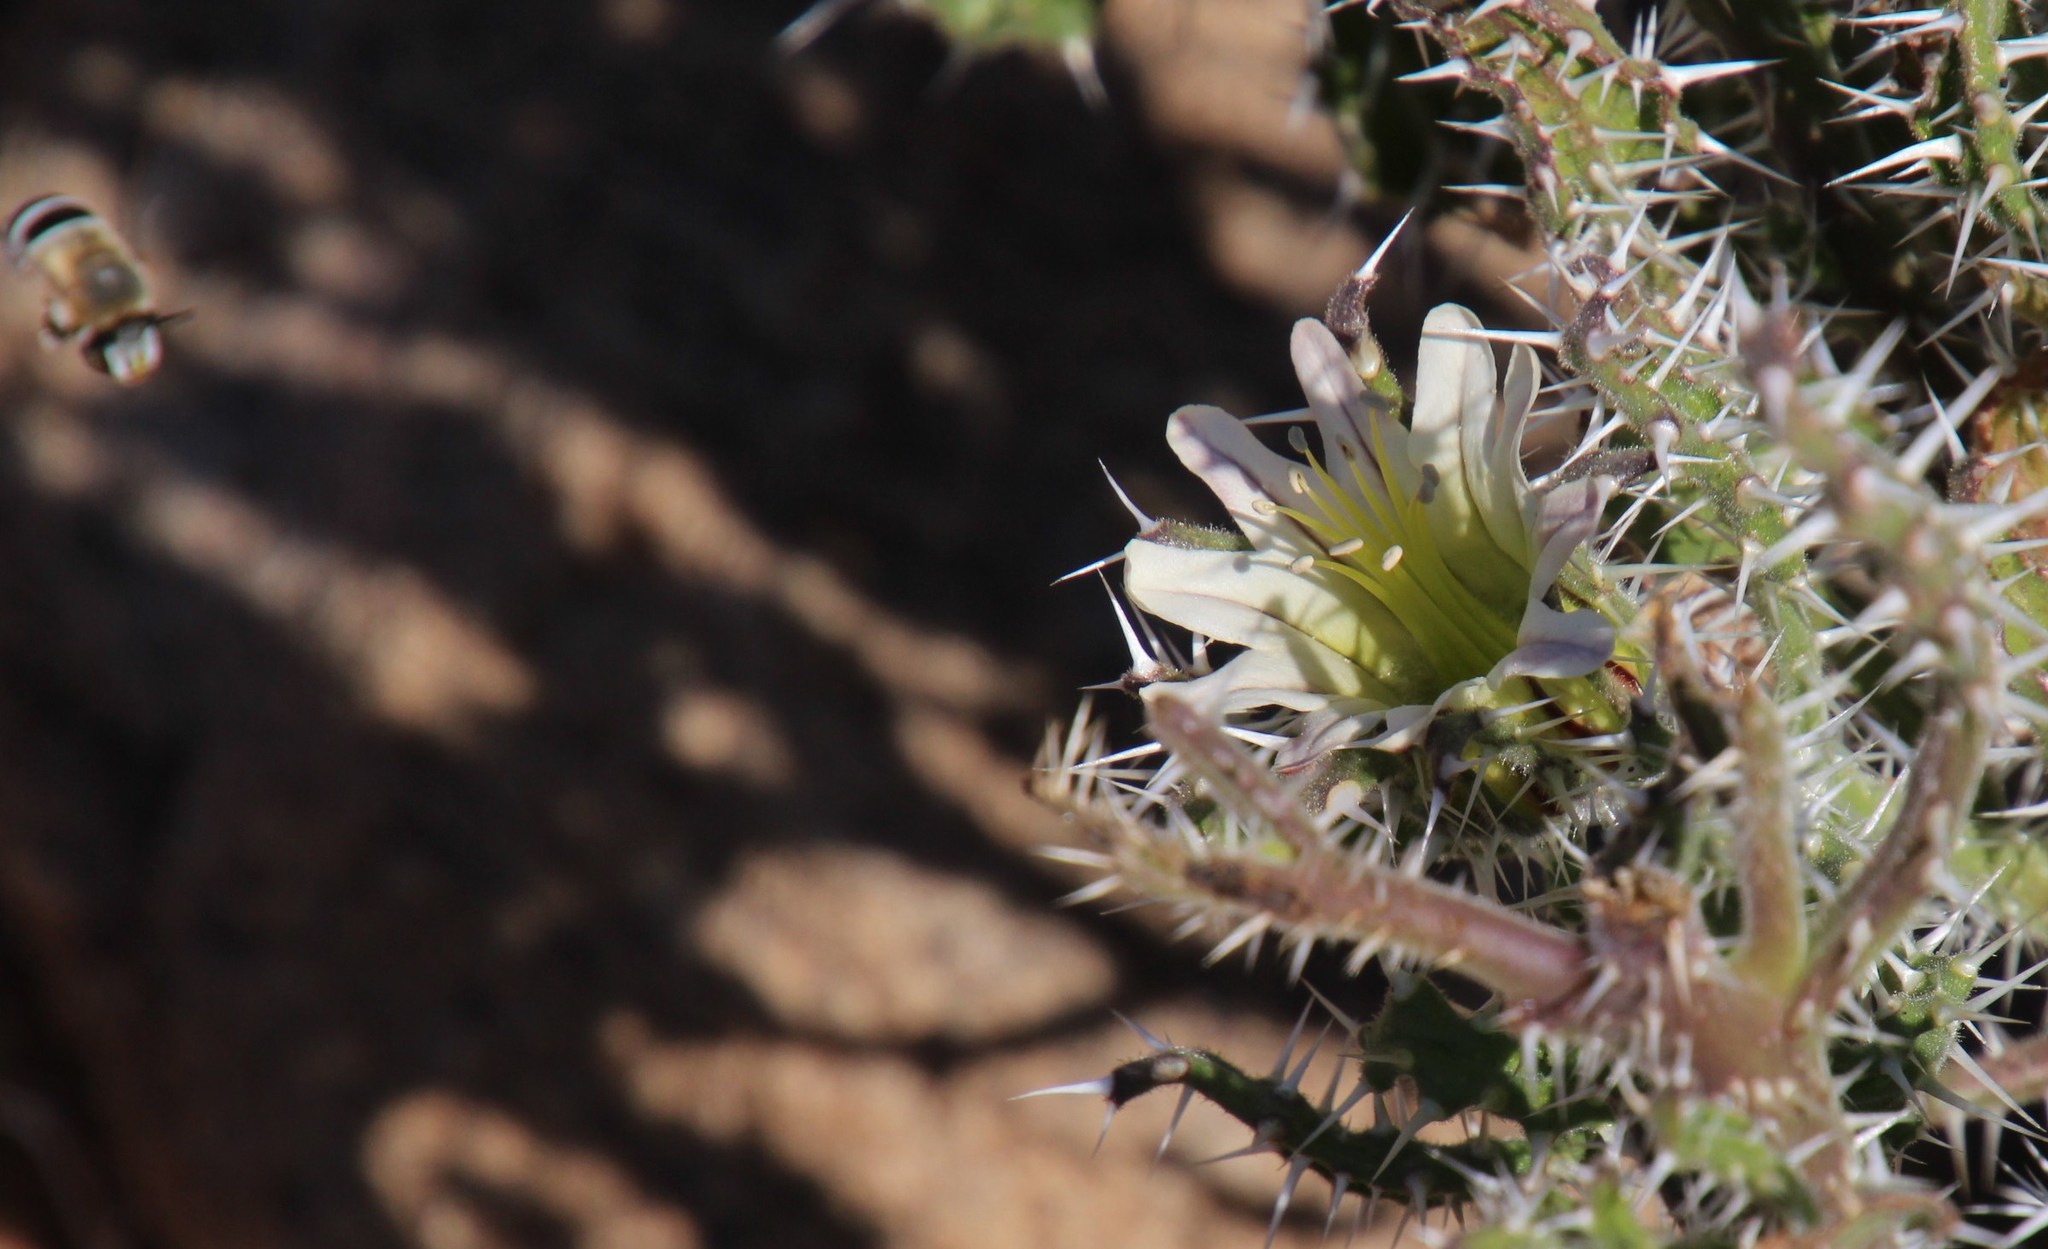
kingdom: Plantae
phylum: Tracheophyta
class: Magnoliopsida
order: Boraginales
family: Boraginaceae
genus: Codon
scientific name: Codon royenii
